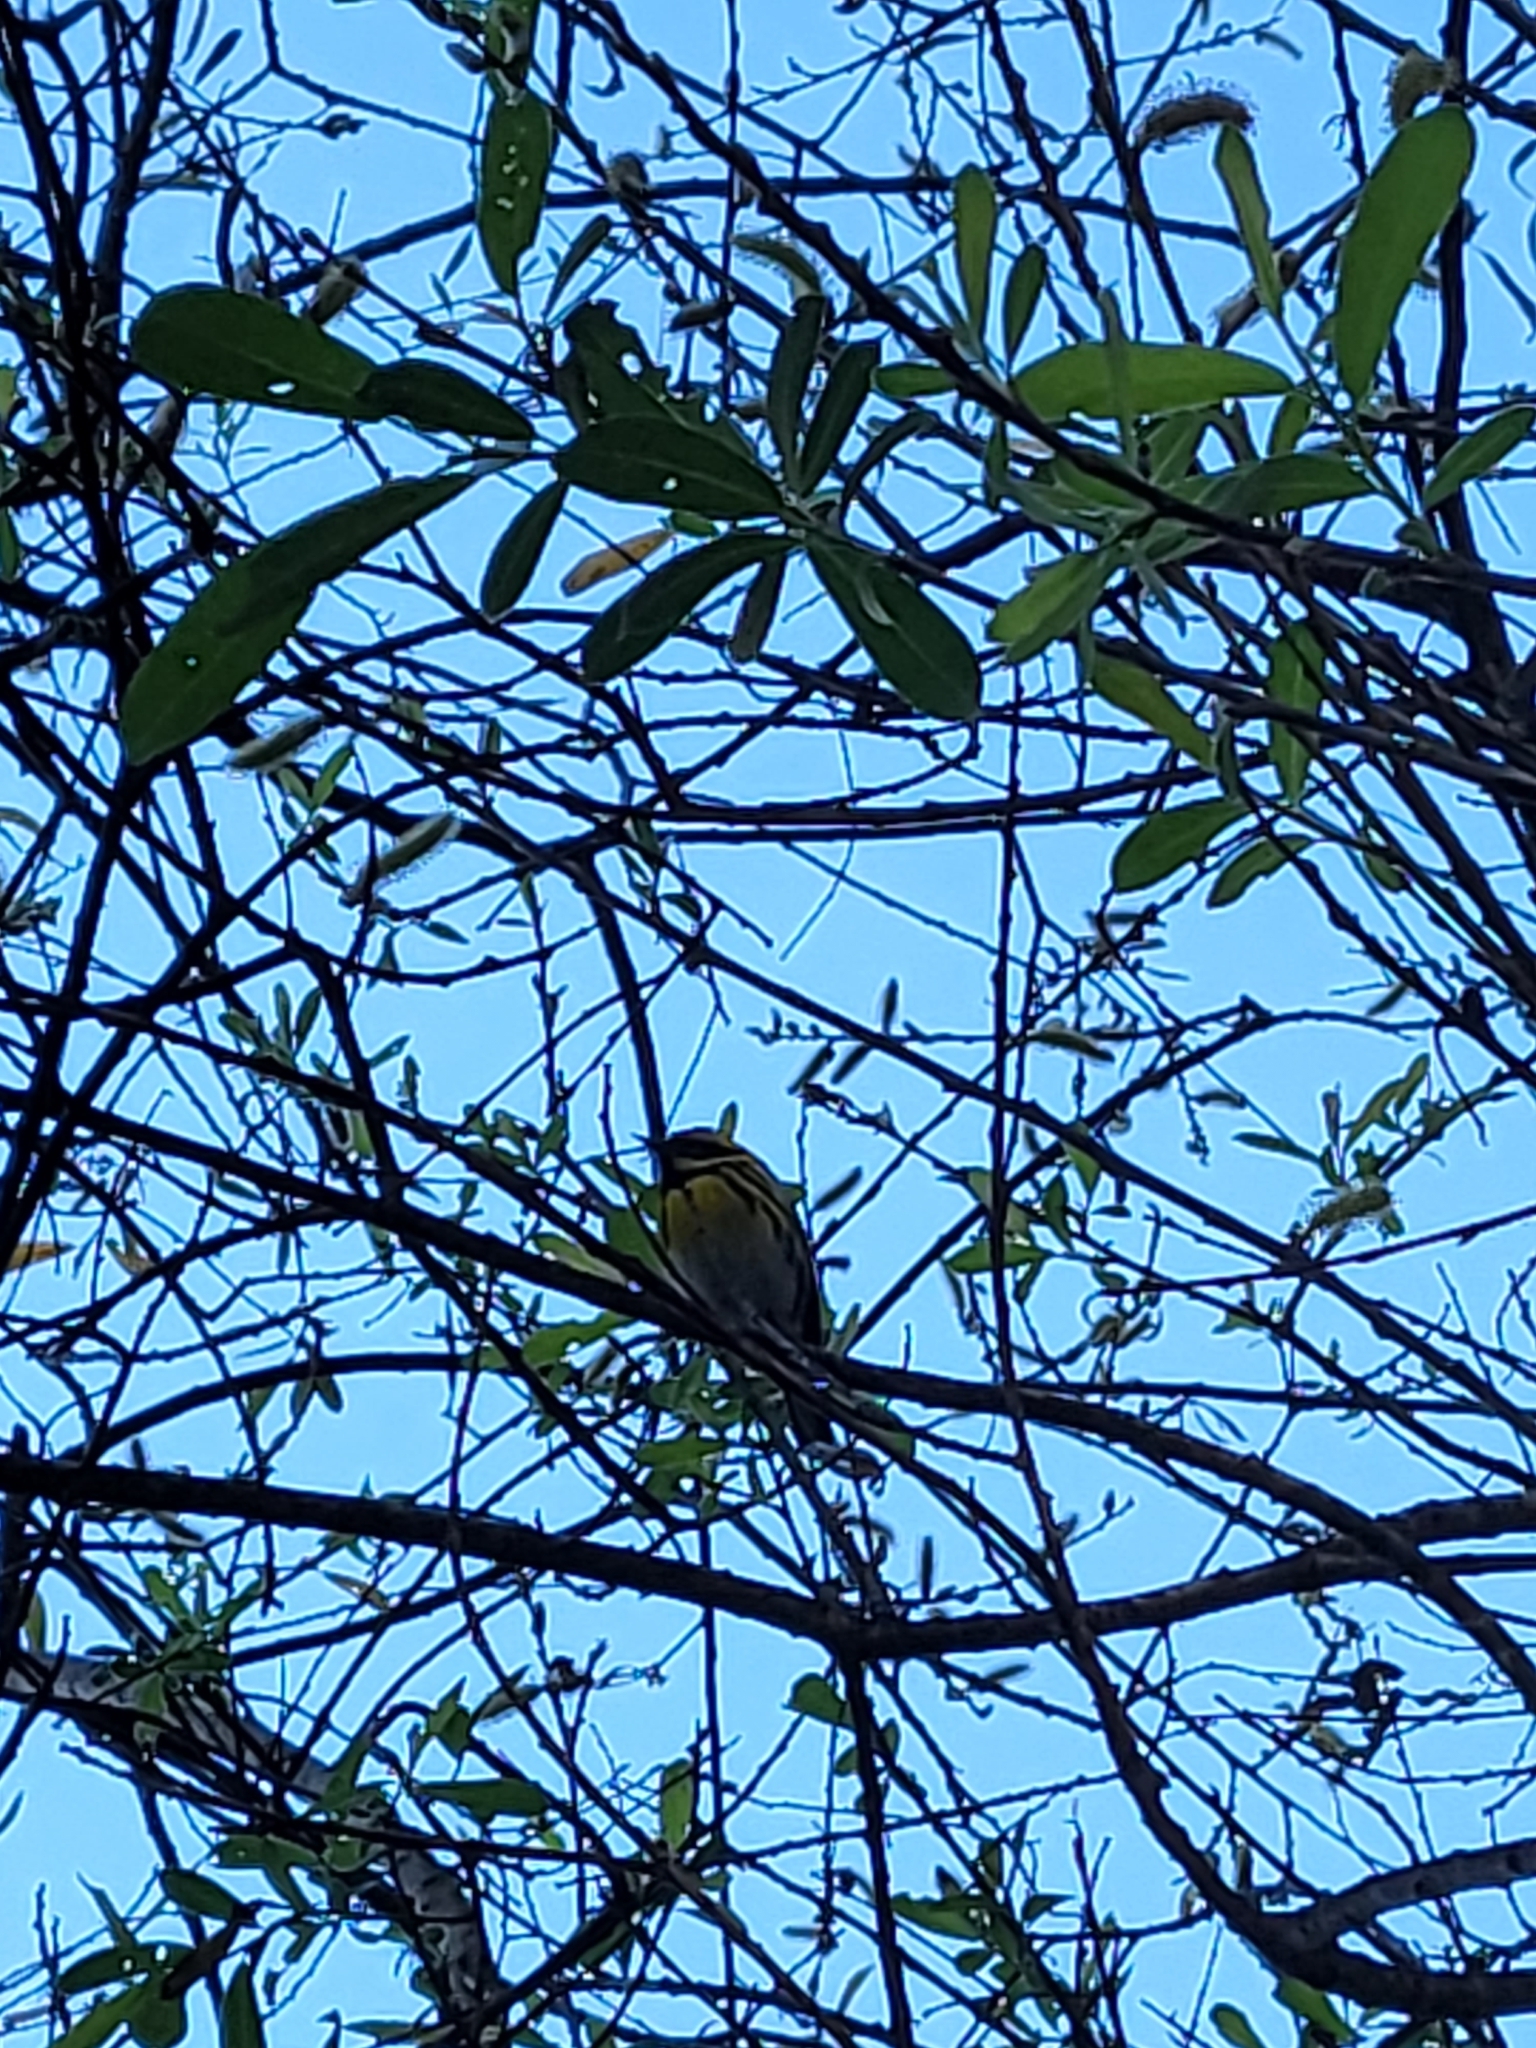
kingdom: Animalia
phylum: Chordata
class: Aves
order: Passeriformes
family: Parulidae
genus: Setophaga
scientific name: Setophaga townsendi
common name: Townsend's warbler
